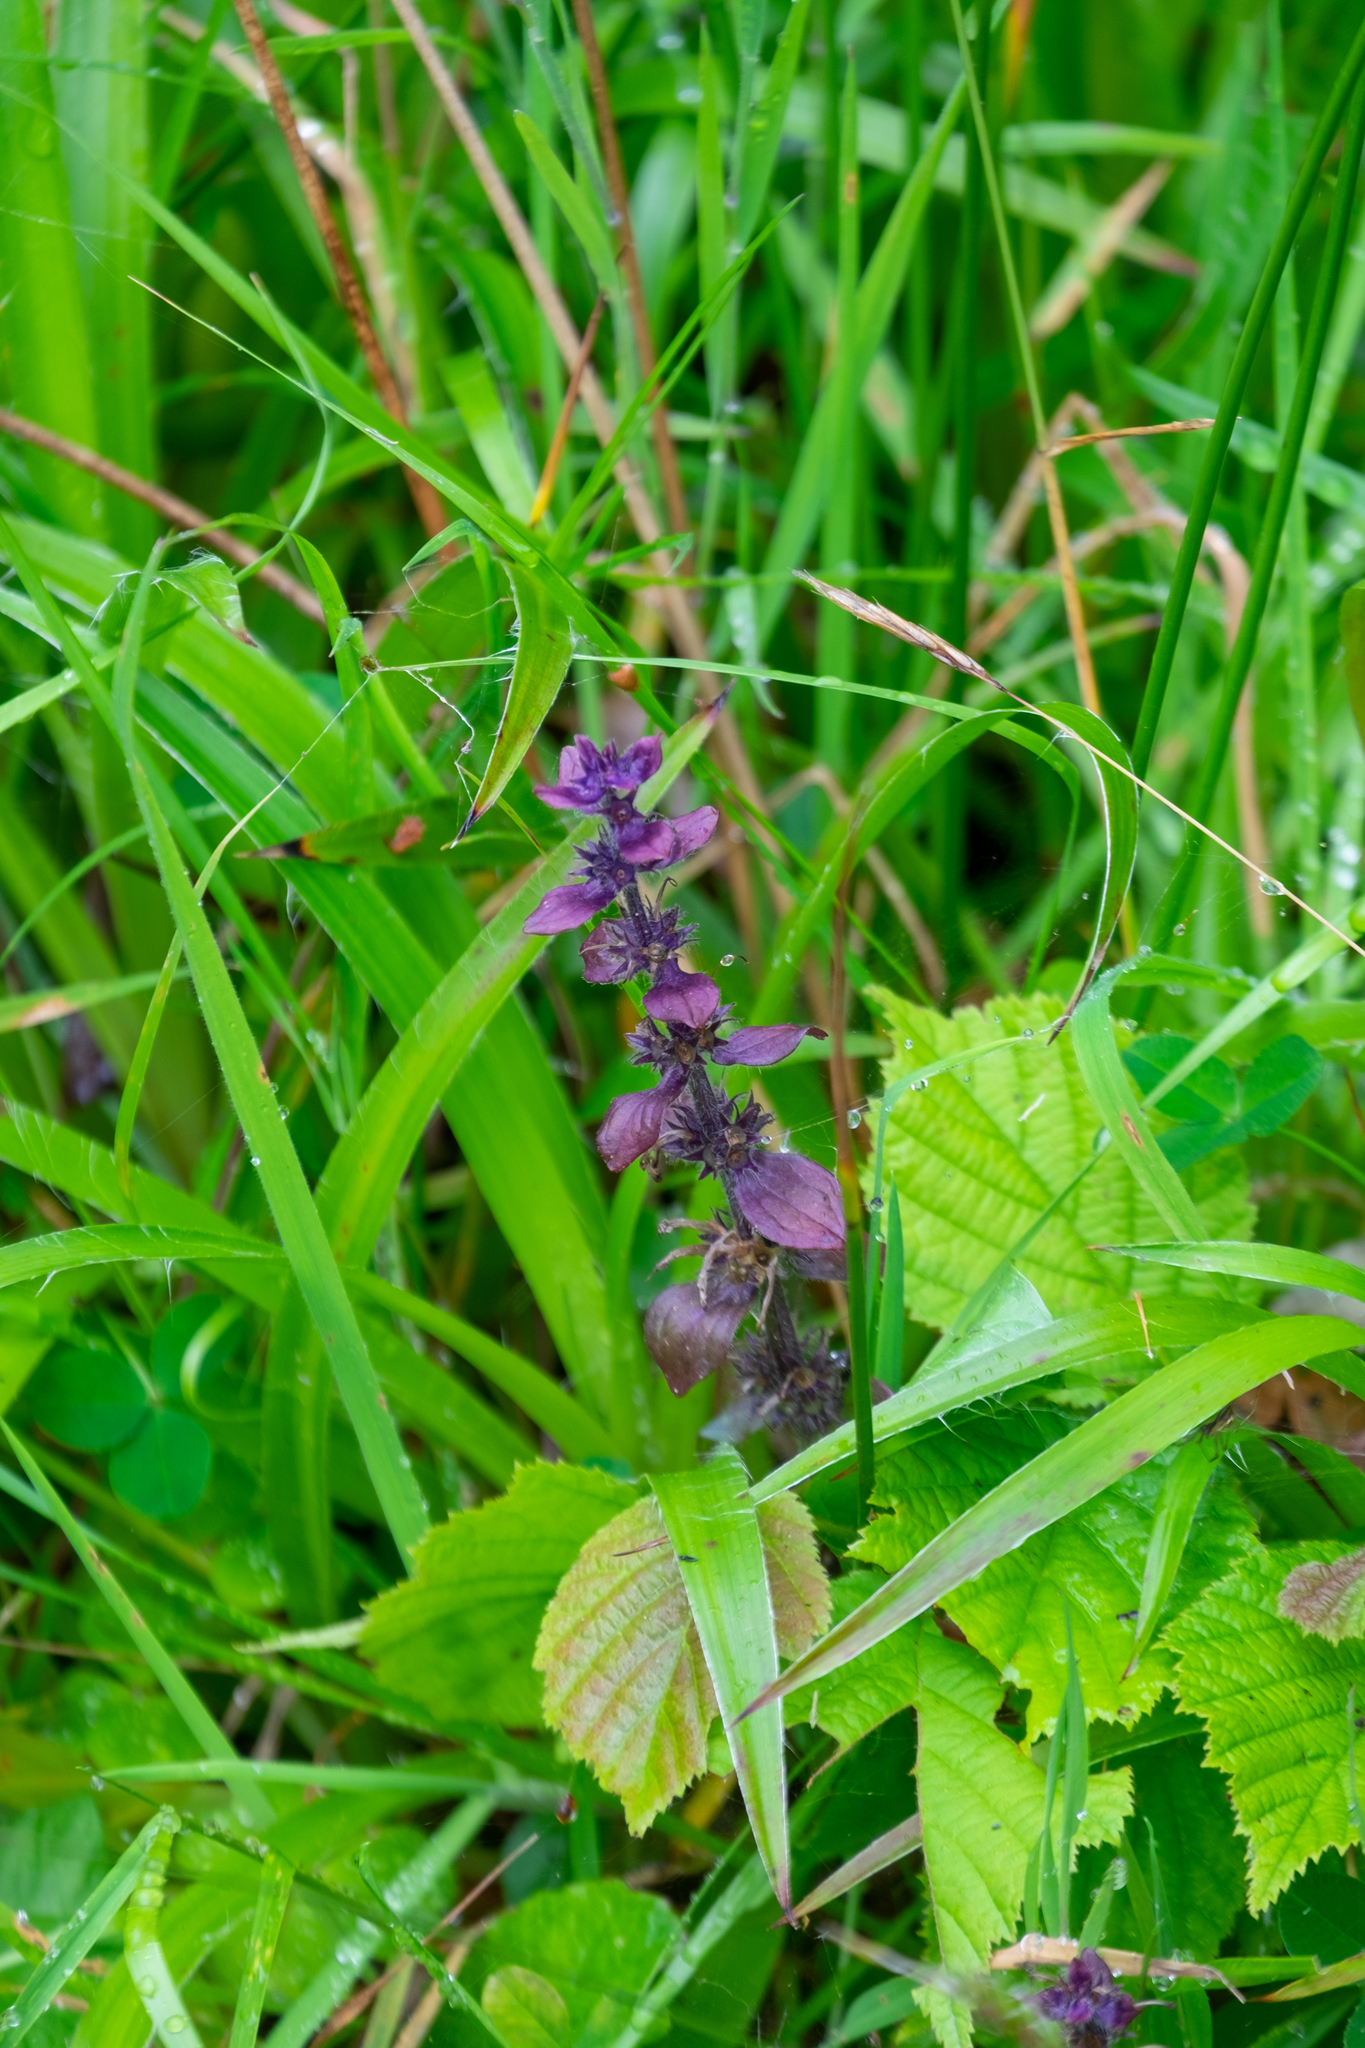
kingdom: Plantae
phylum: Tracheophyta
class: Magnoliopsida
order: Lamiales
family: Lamiaceae
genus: Ajuga
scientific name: Ajuga reptans
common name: Bugle
